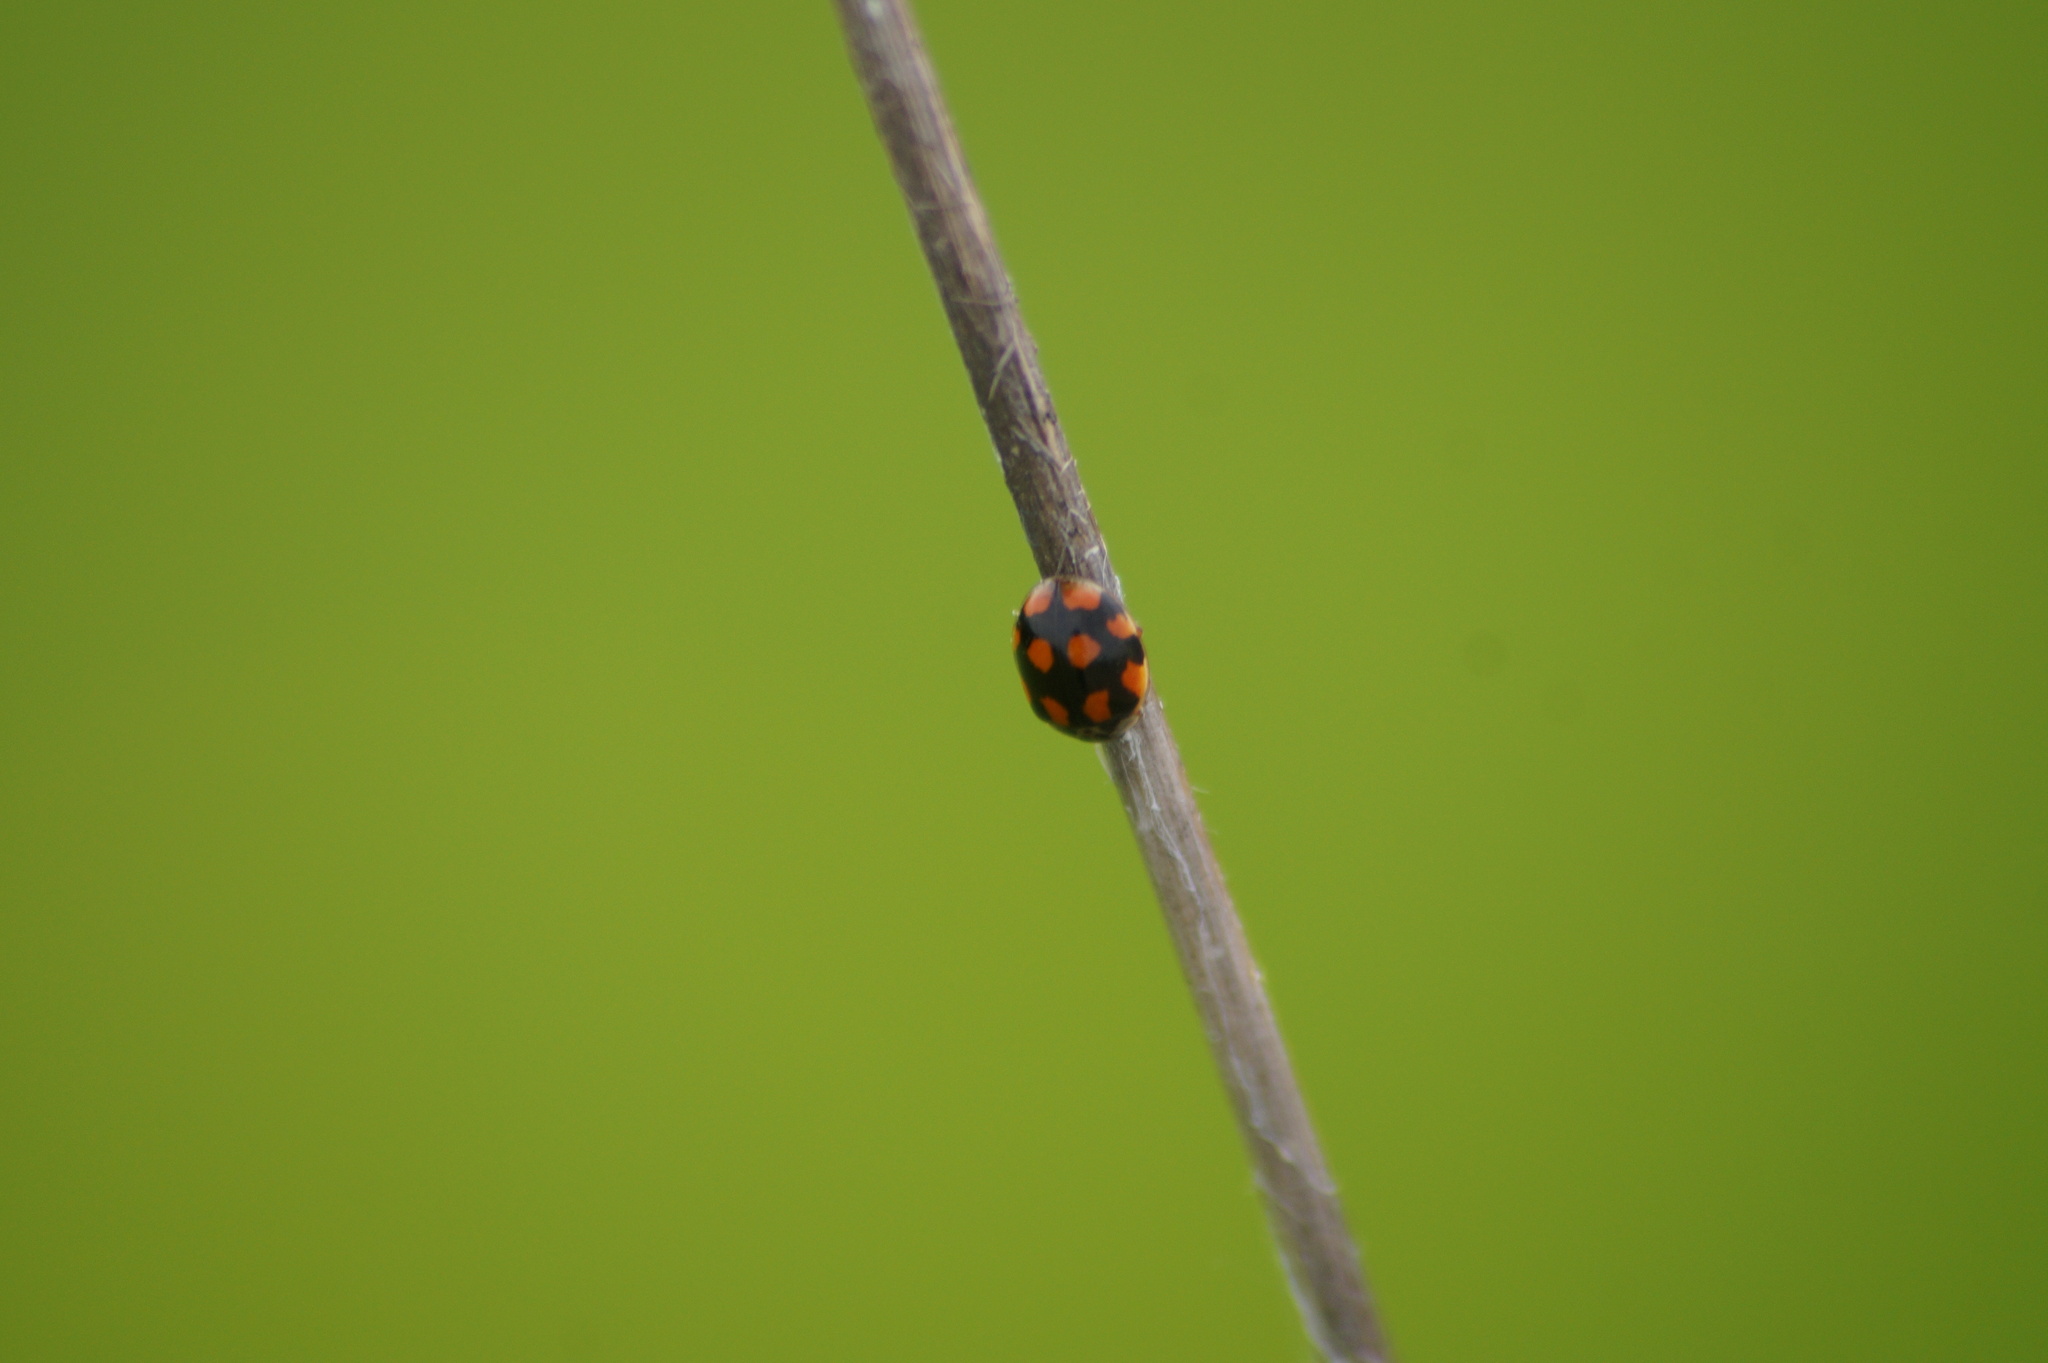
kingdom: Animalia
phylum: Arthropoda
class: Insecta
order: Coleoptera
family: Coccinellidae
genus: Adalia
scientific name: Adalia decempunctata
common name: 10-spot ladybird
